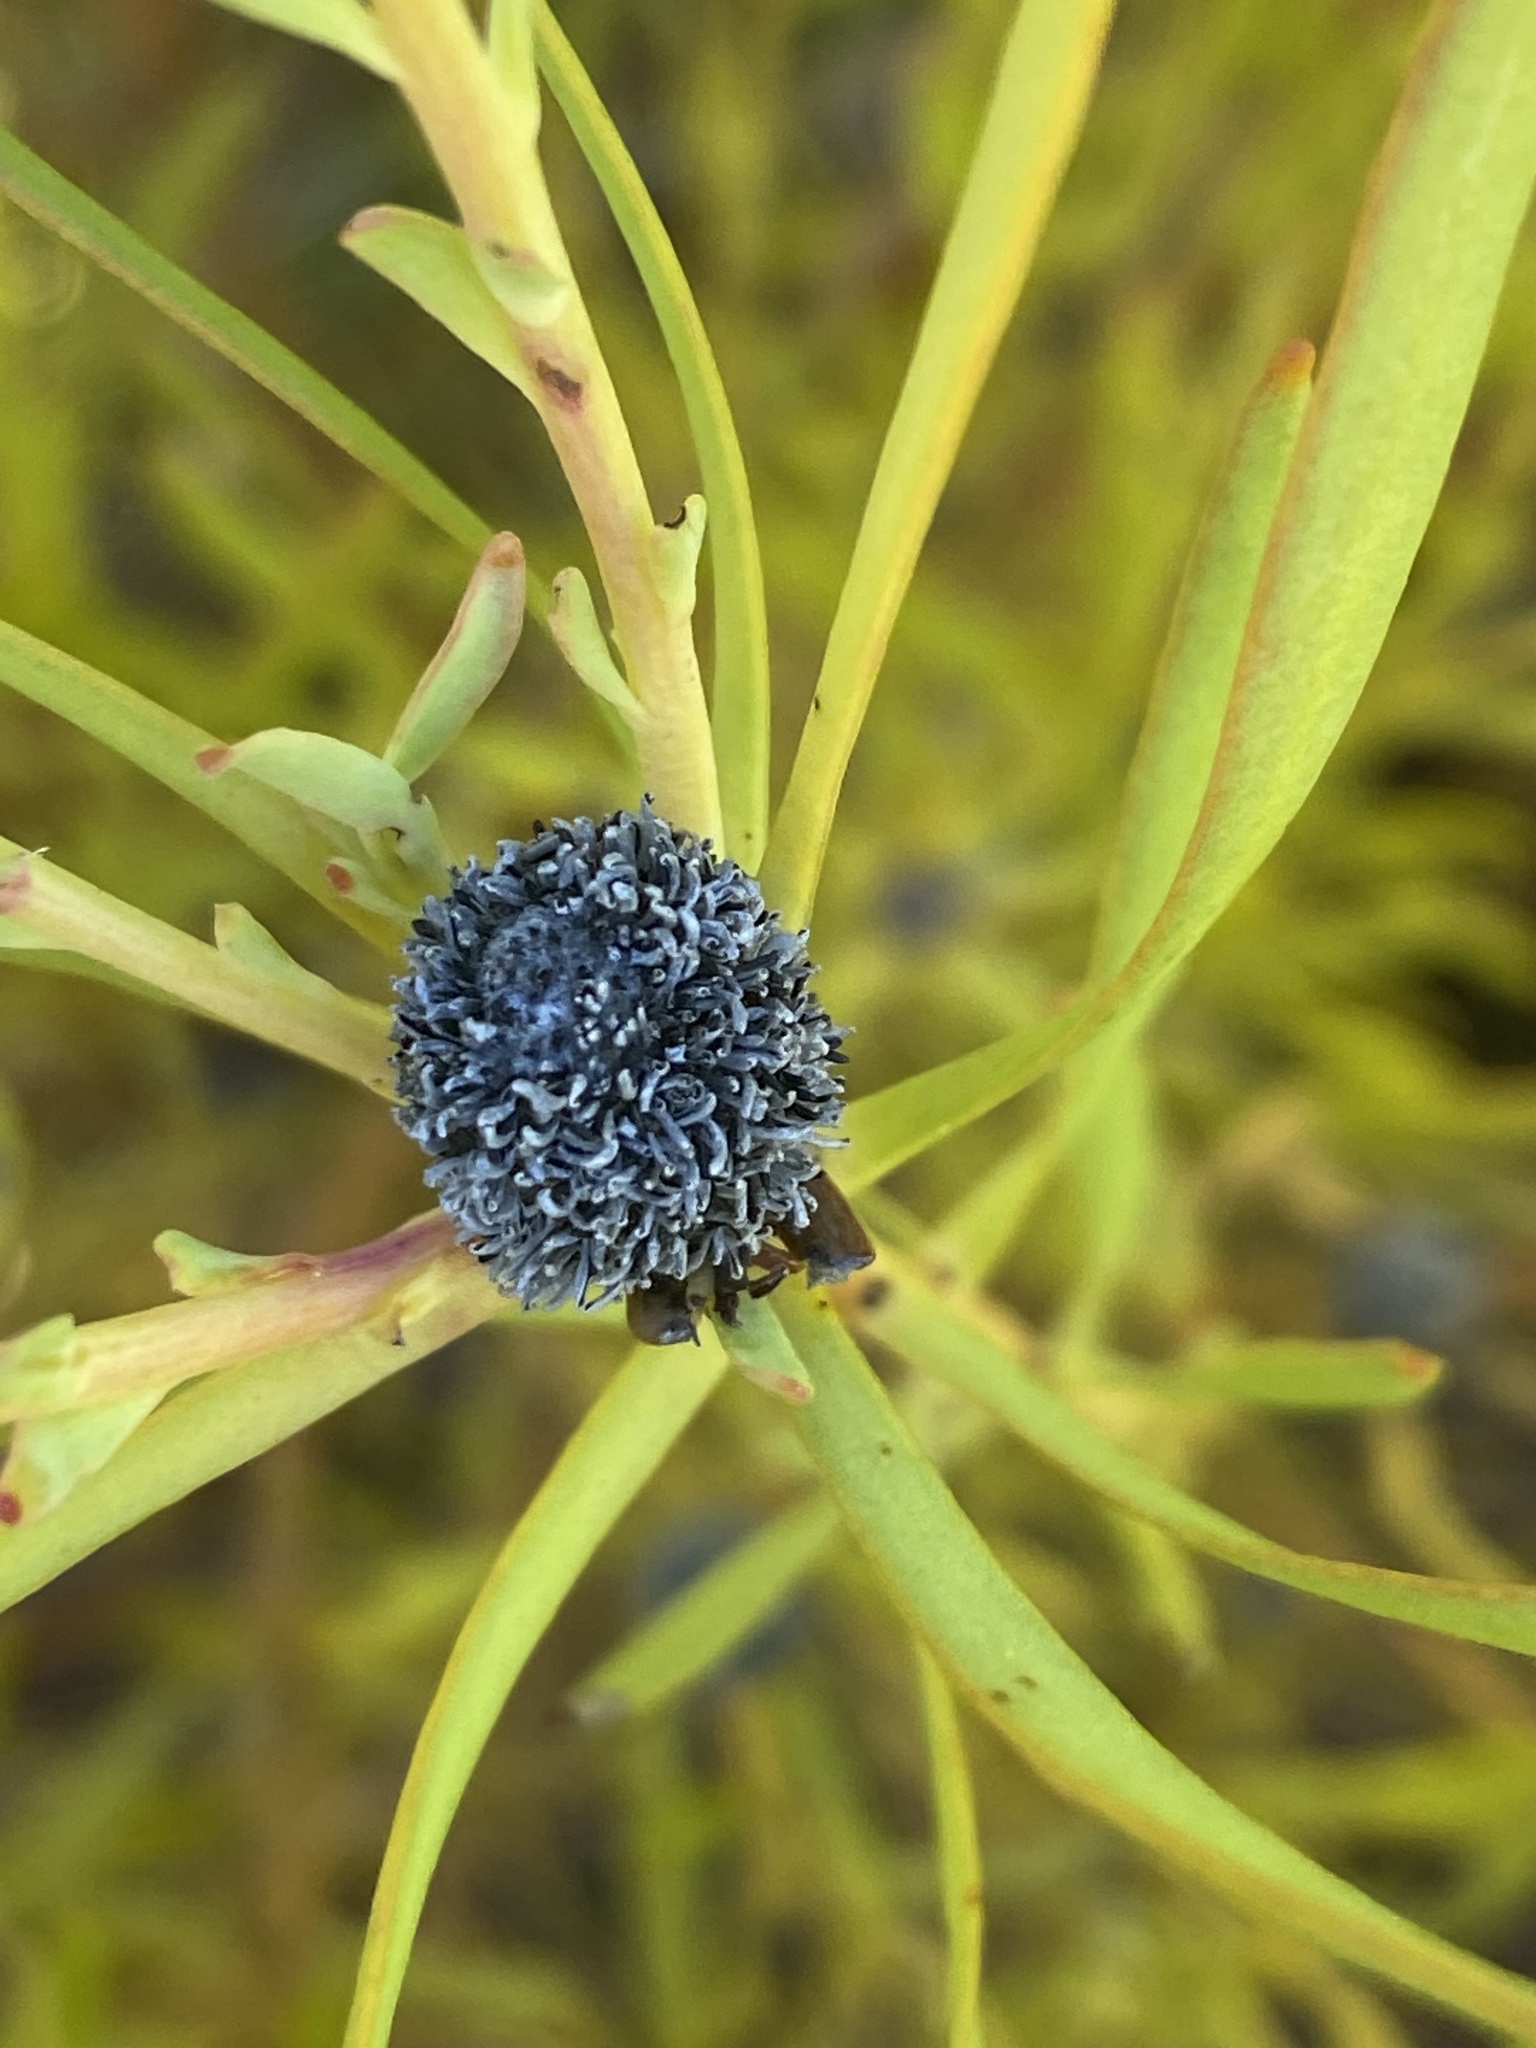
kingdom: Plantae
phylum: Tracheophyta
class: Magnoliopsida
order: Proteales
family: Proteaceae
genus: Leucadendron
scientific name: Leucadendron salignum
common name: Common sunshine conebush
